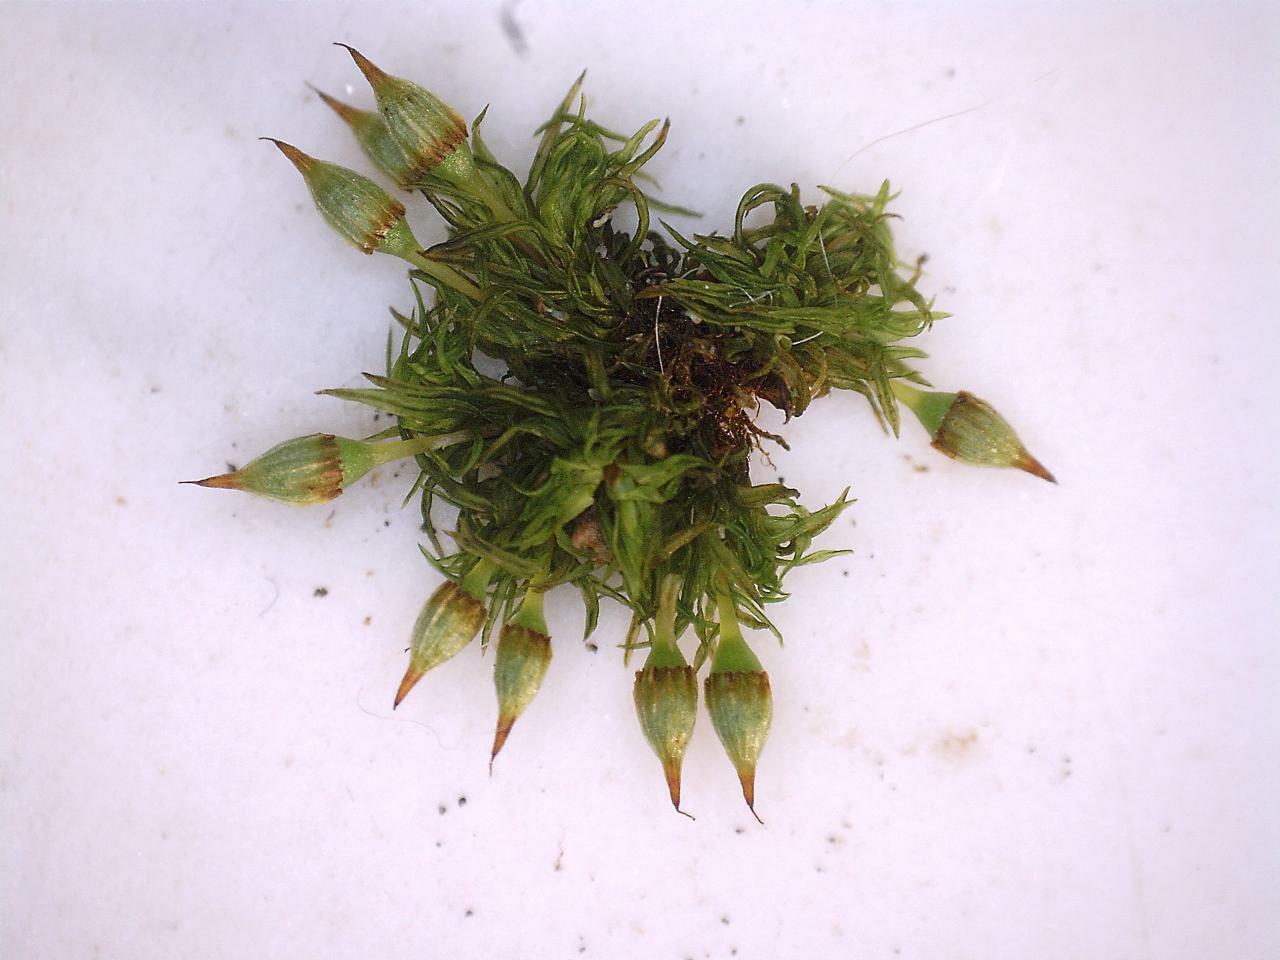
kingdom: Plantae
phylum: Bryophyta
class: Bryopsida
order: Orthotrichales
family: Orthotrichaceae
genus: Orthotrichum
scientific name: Orthotrichum pulchellum
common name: Elegant bristle-moss
